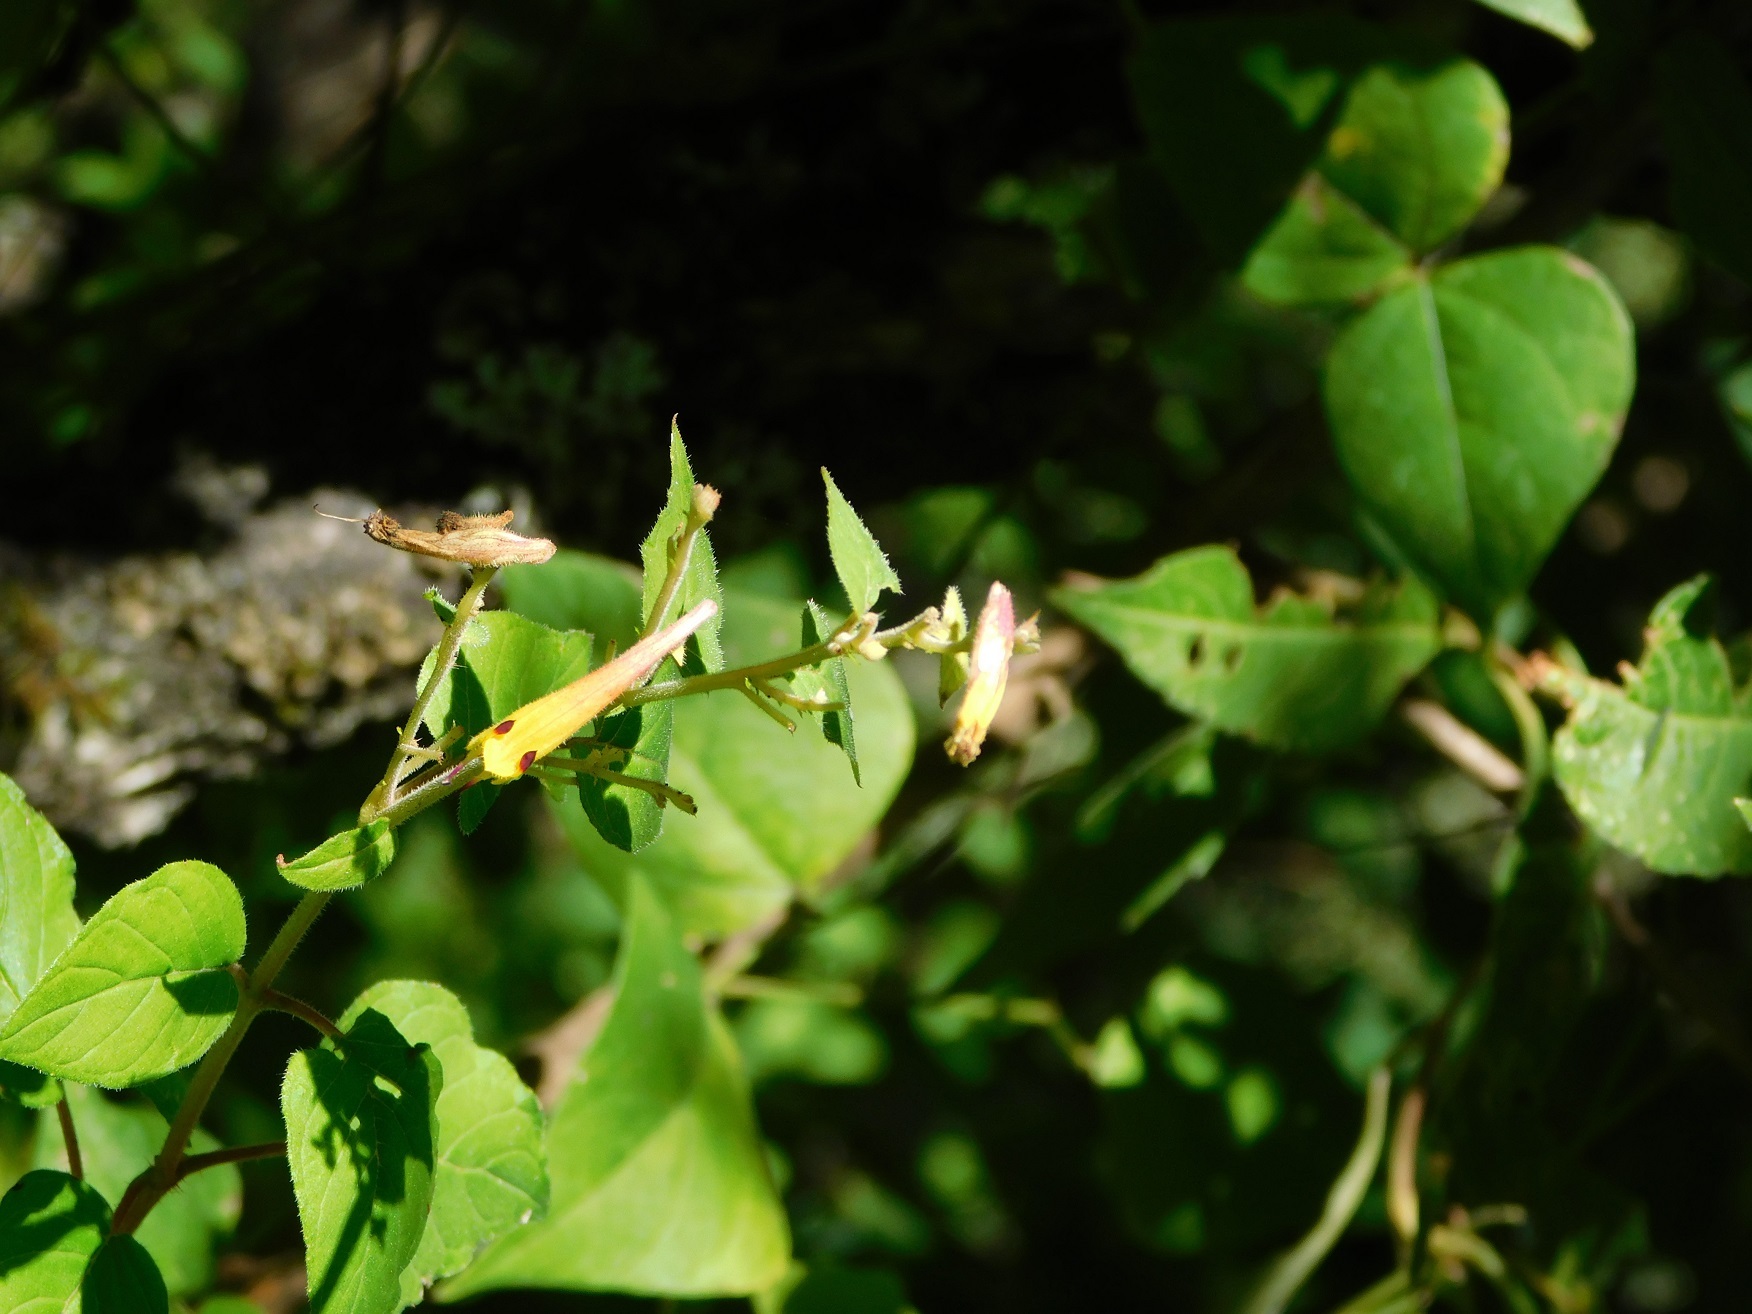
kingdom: Plantae
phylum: Tracheophyta
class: Magnoliopsida
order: Myrtales
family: Lythraceae
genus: Cuphea
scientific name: Cuphea cyanea
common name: Black-eyed cuphea
